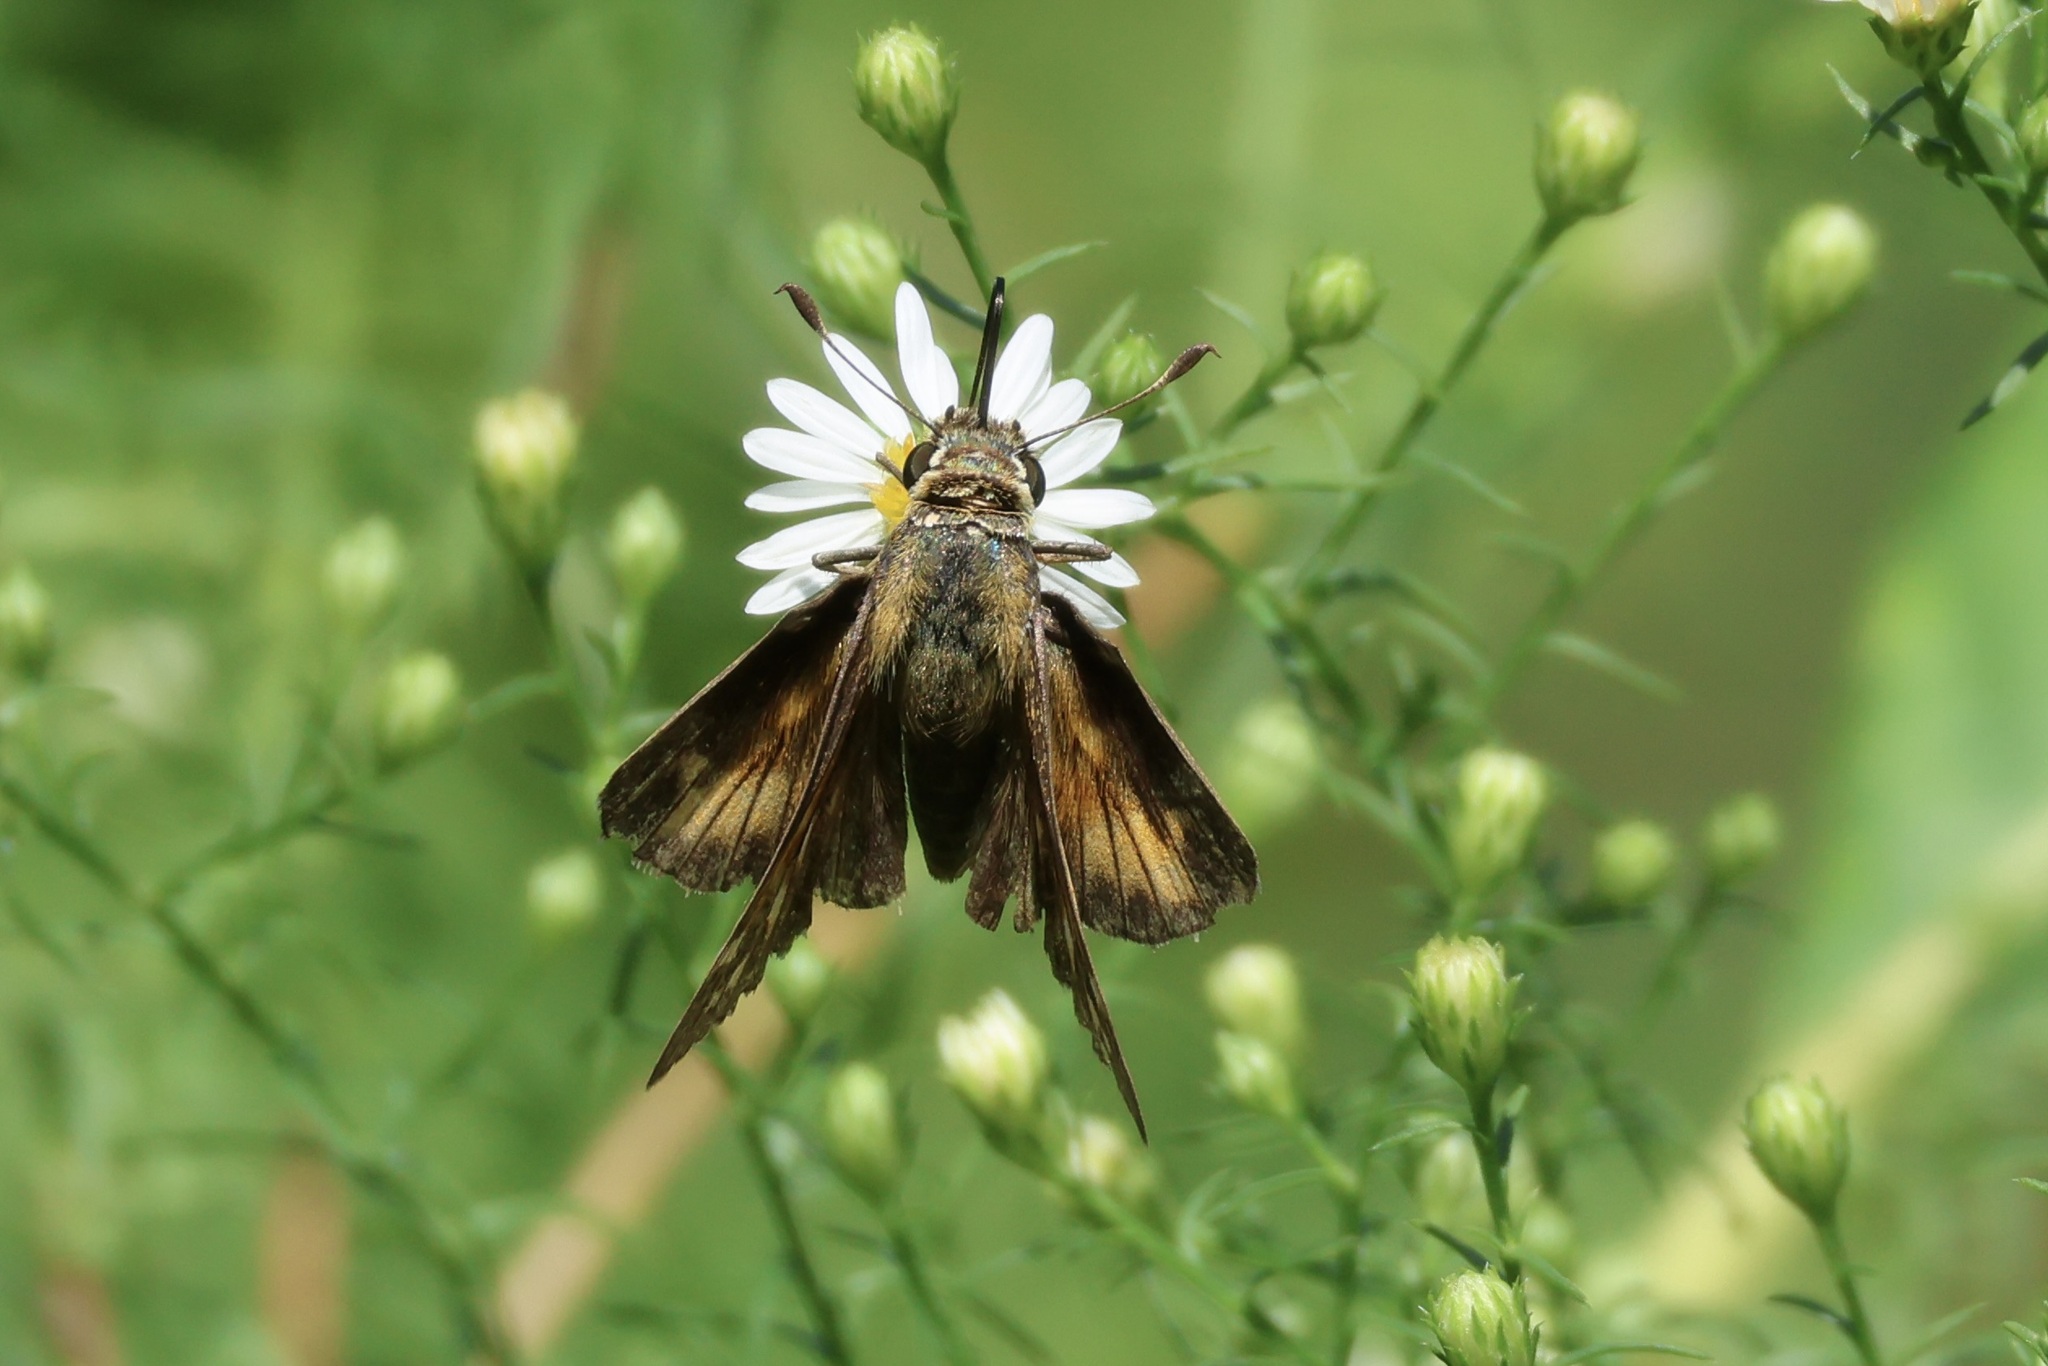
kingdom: Animalia
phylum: Arthropoda
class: Insecta
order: Lepidoptera
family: Hesperiidae
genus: Atalopedes
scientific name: Atalopedes
